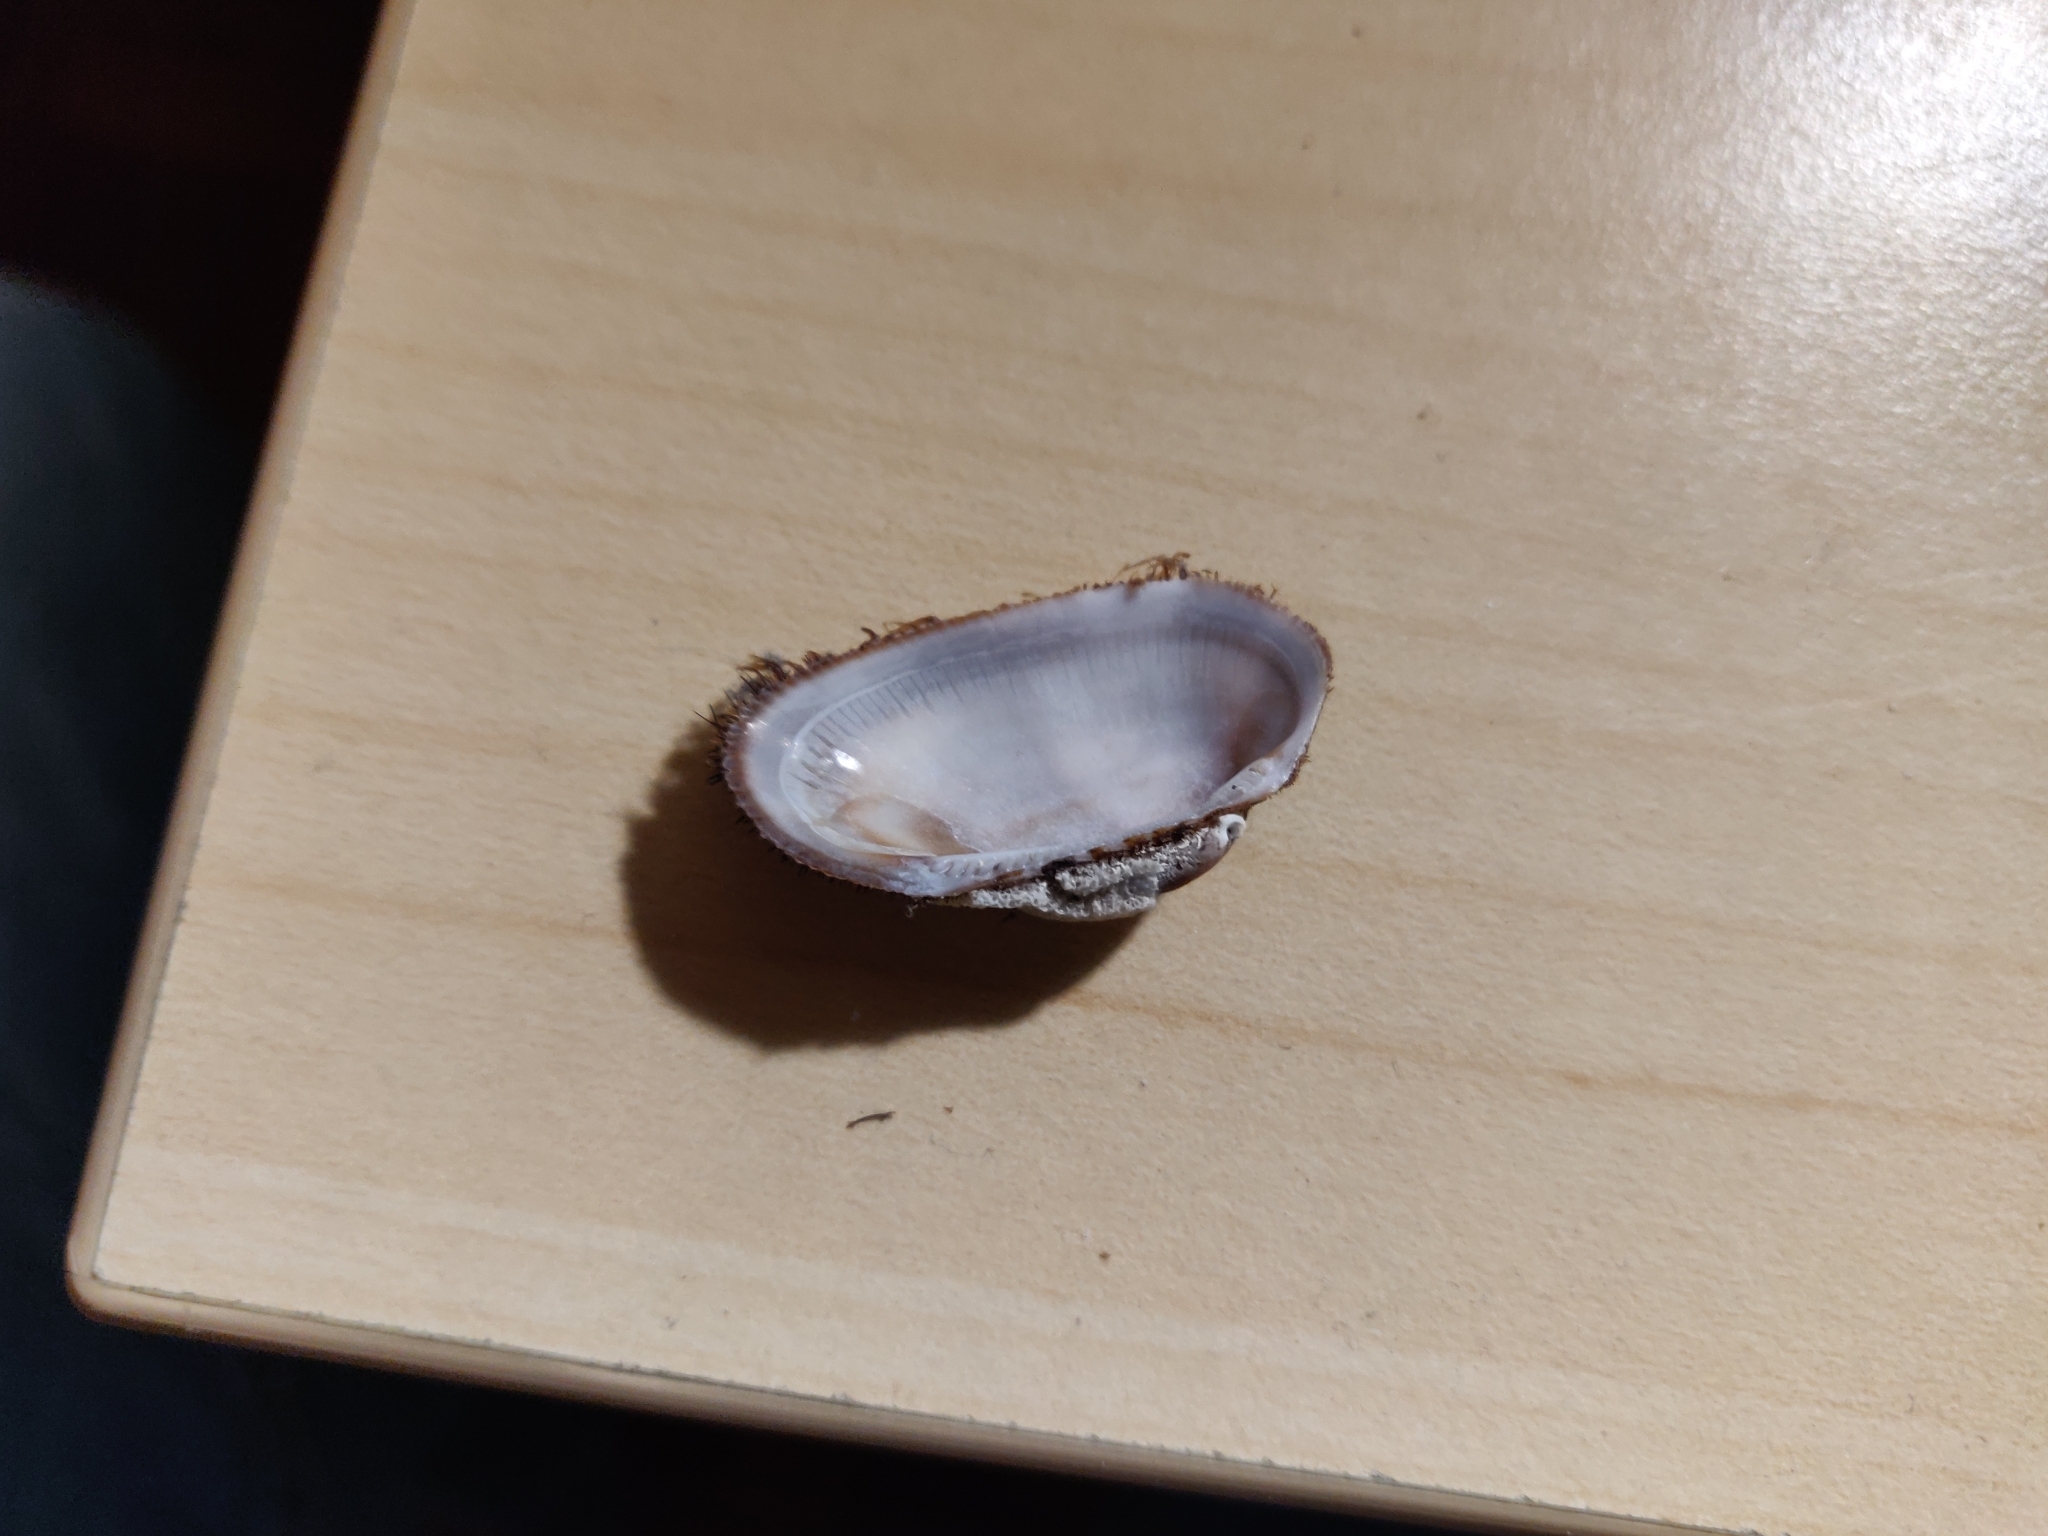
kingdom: Animalia
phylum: Mollusca
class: Bivalvia
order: Arcida
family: Arcidae
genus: Barbatia
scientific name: Barbatia barbata
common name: Bearded ark
